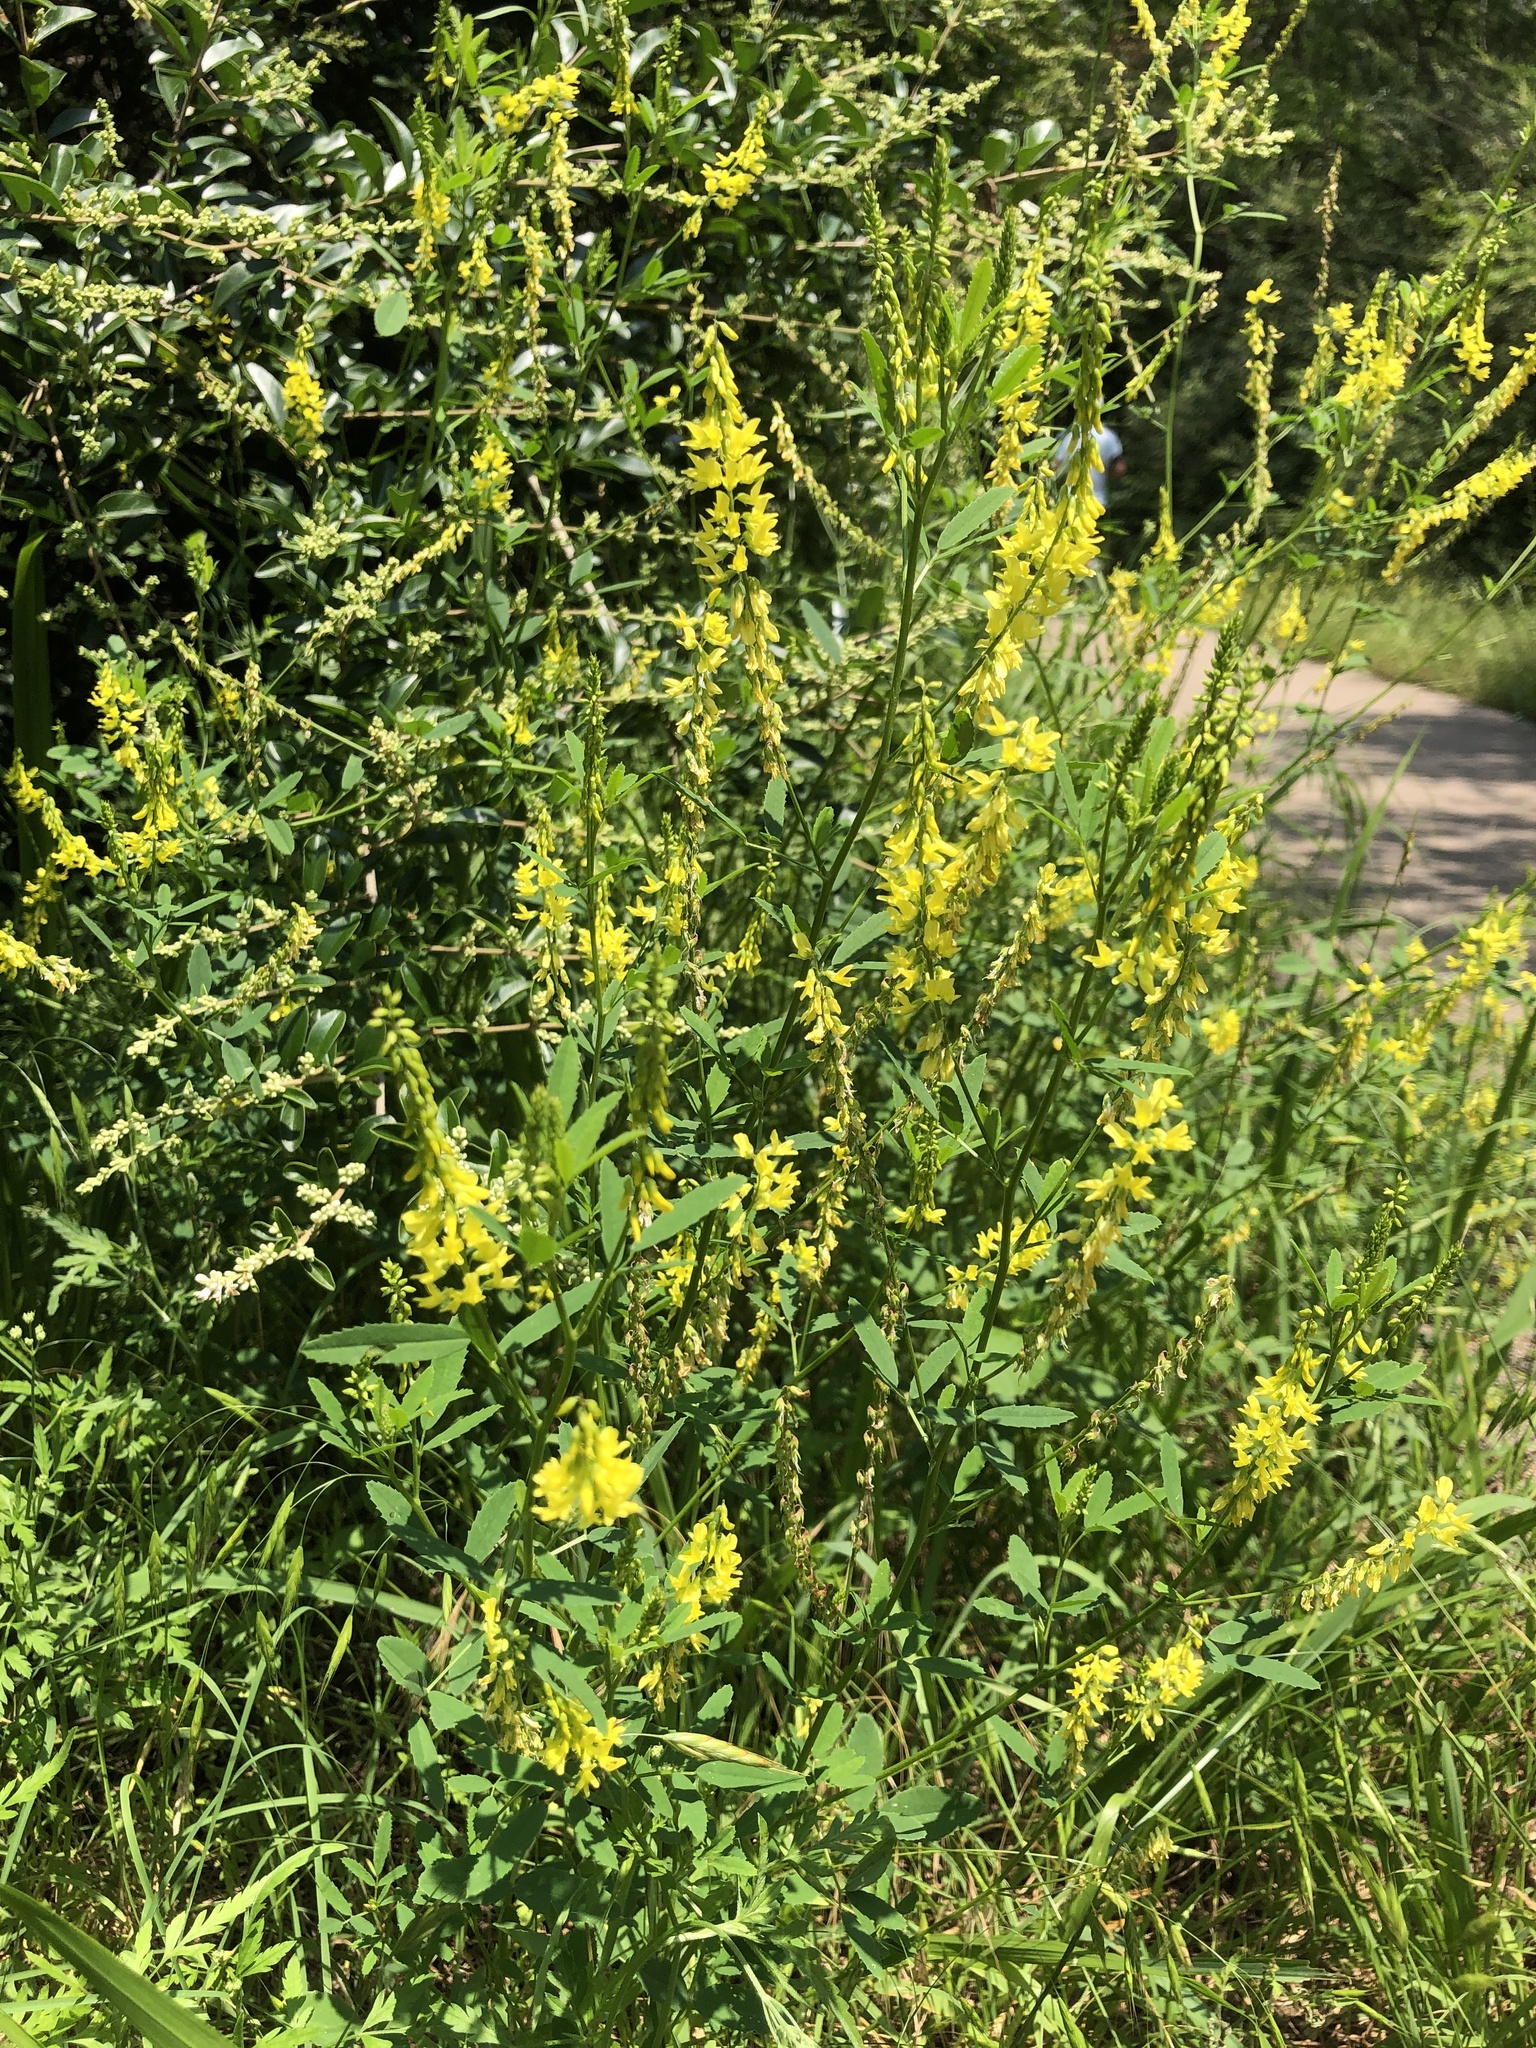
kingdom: Plantae
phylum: Tracheophyta
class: Magnoliopsida
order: Fabales
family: Fabaceae
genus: Melilotus
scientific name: Melilotus officinalis
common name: Sweetclover
